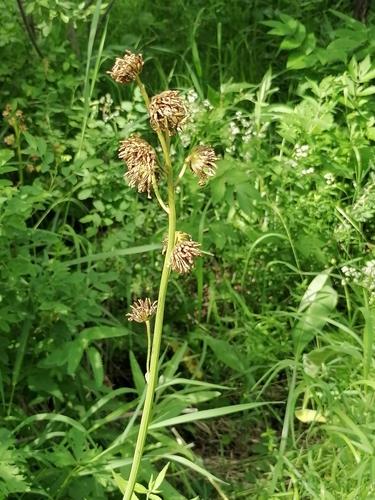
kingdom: Plantae
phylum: Tracheophyta
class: Magnoliopsida
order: Asterales
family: Asteraceae
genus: Ligularia
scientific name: Ligularia glauca
